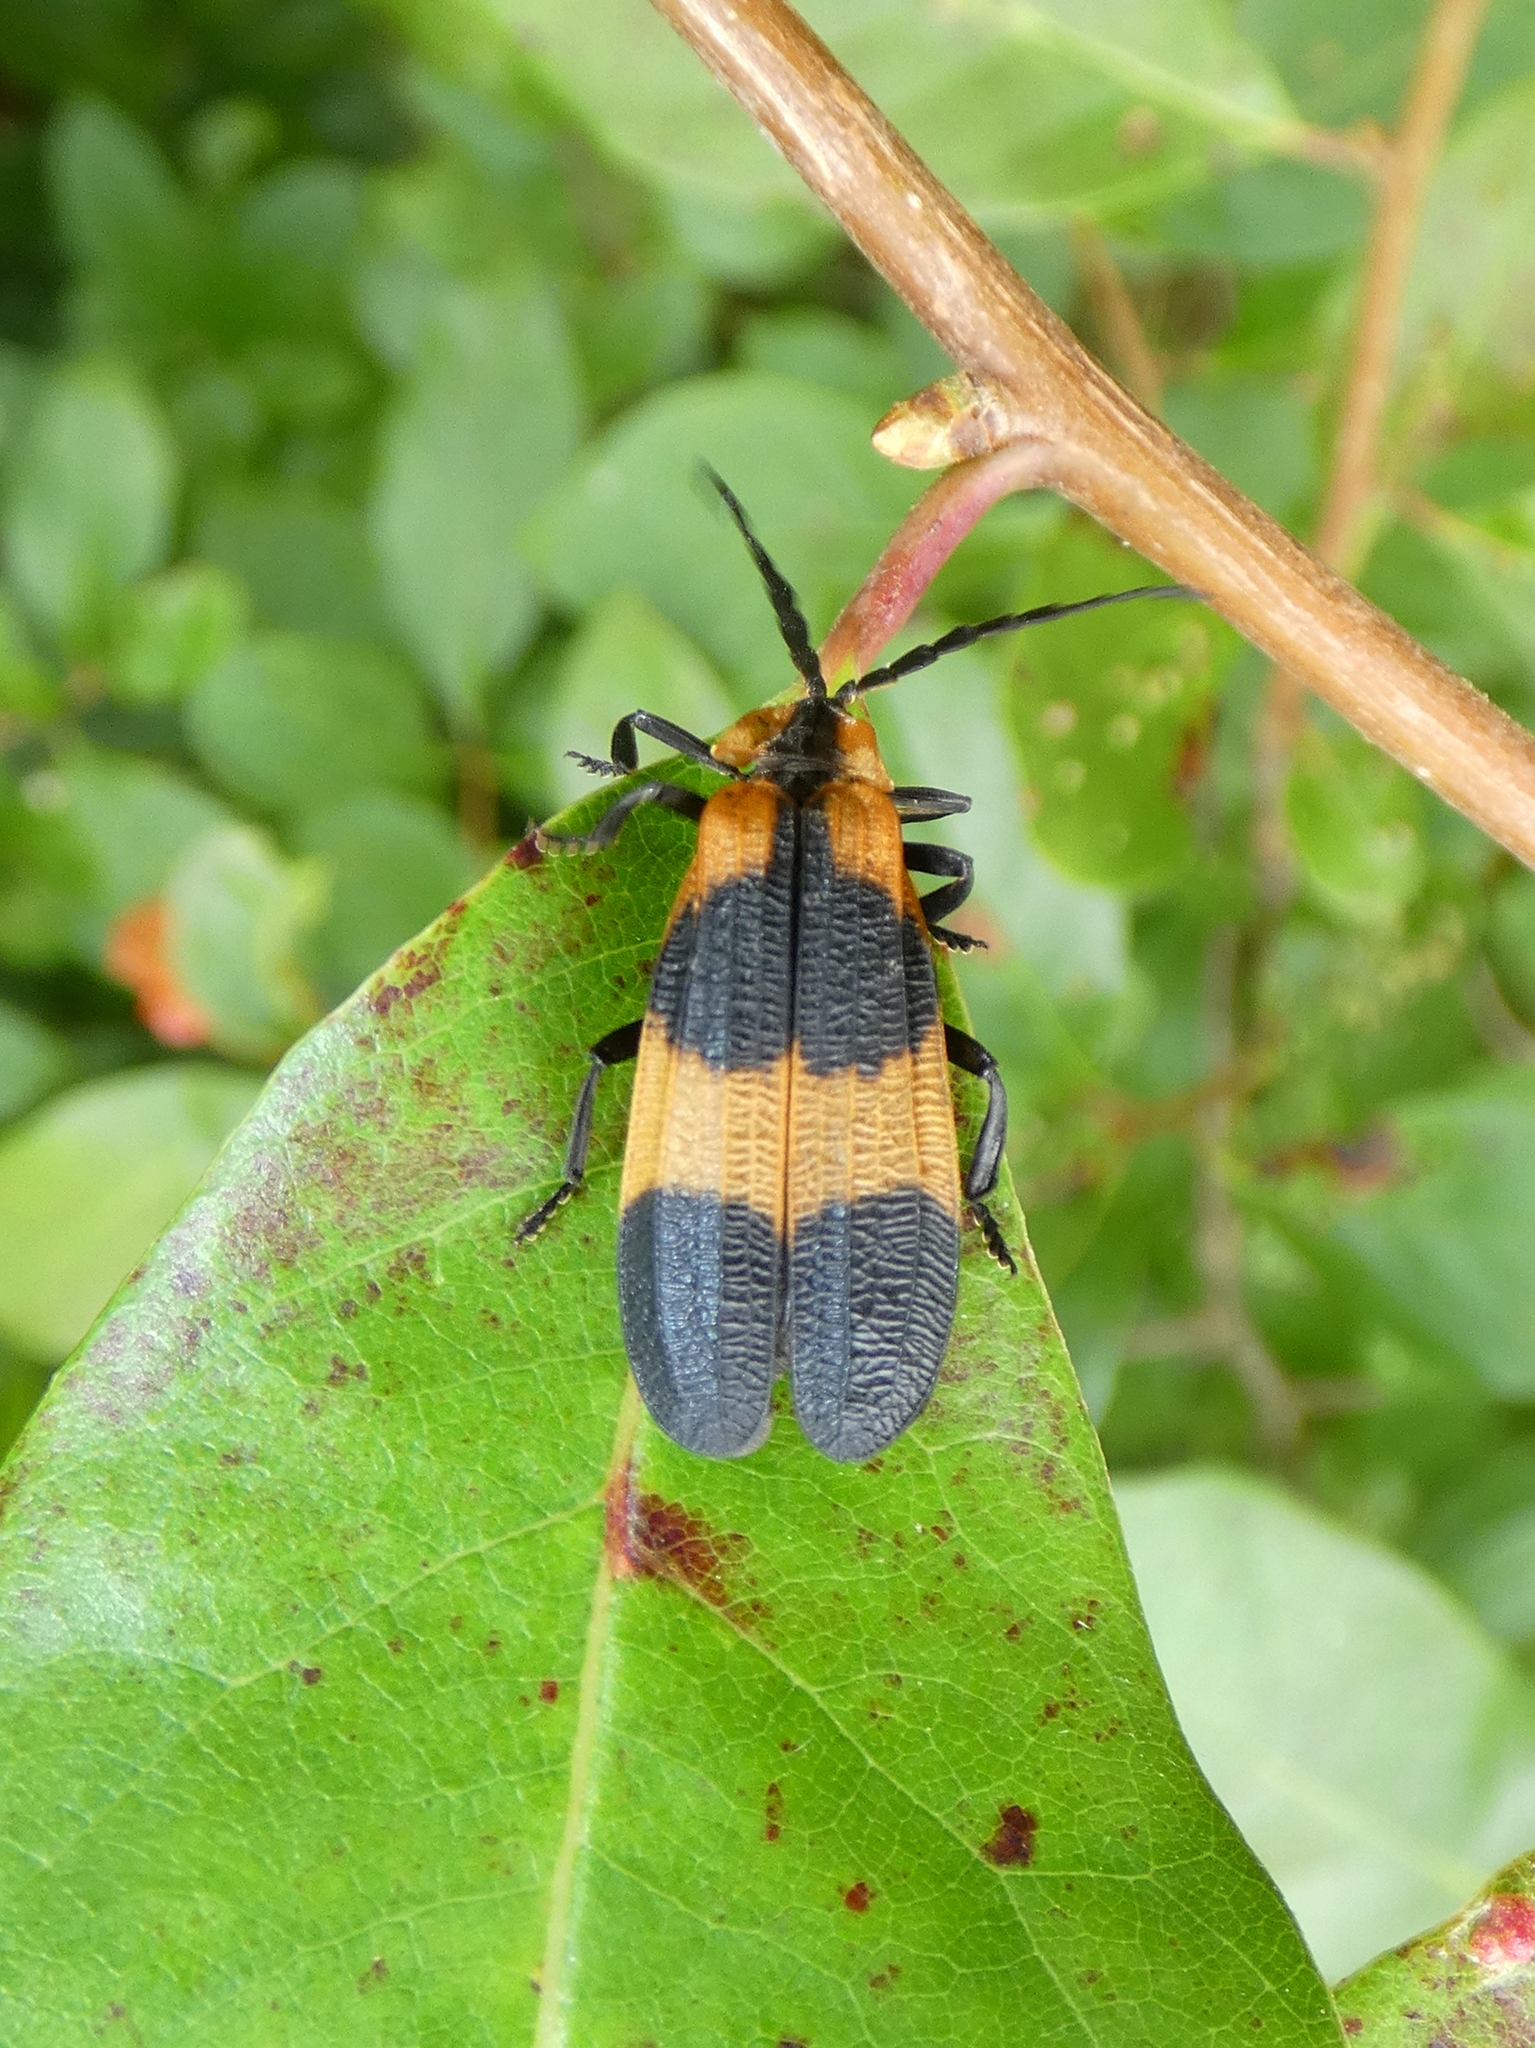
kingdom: Animalia
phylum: Arthropoda
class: Insecta
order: Coleoptera
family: Lycidae
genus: Calopteron
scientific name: Calopteron reticulatum
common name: Banded net-winged beetle
